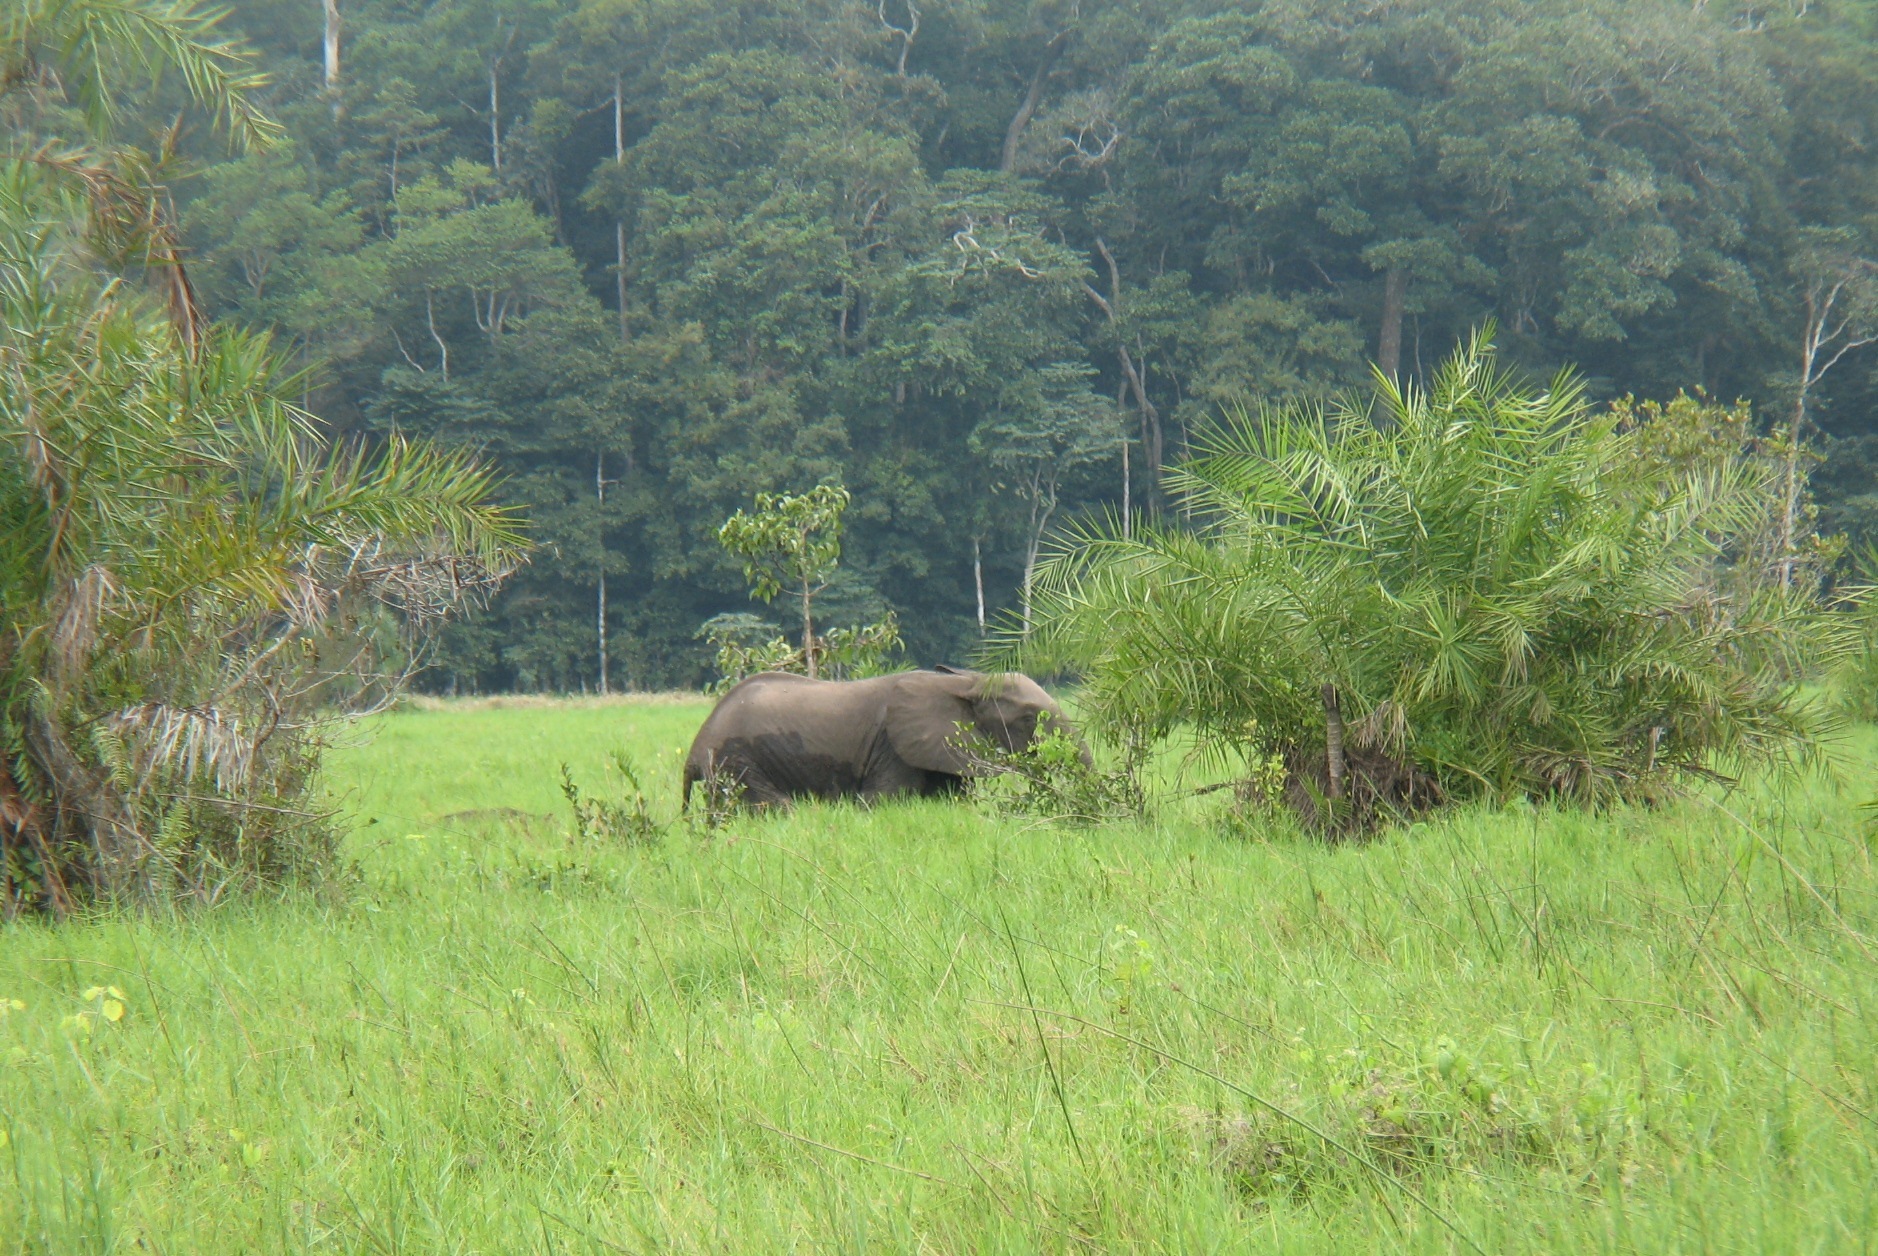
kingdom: Animalia
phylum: Chordata
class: Mammalia
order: Proboscidea
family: Elephantidae
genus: Loxodonta
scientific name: Loxodonta cyclotis
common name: African forest elephant
